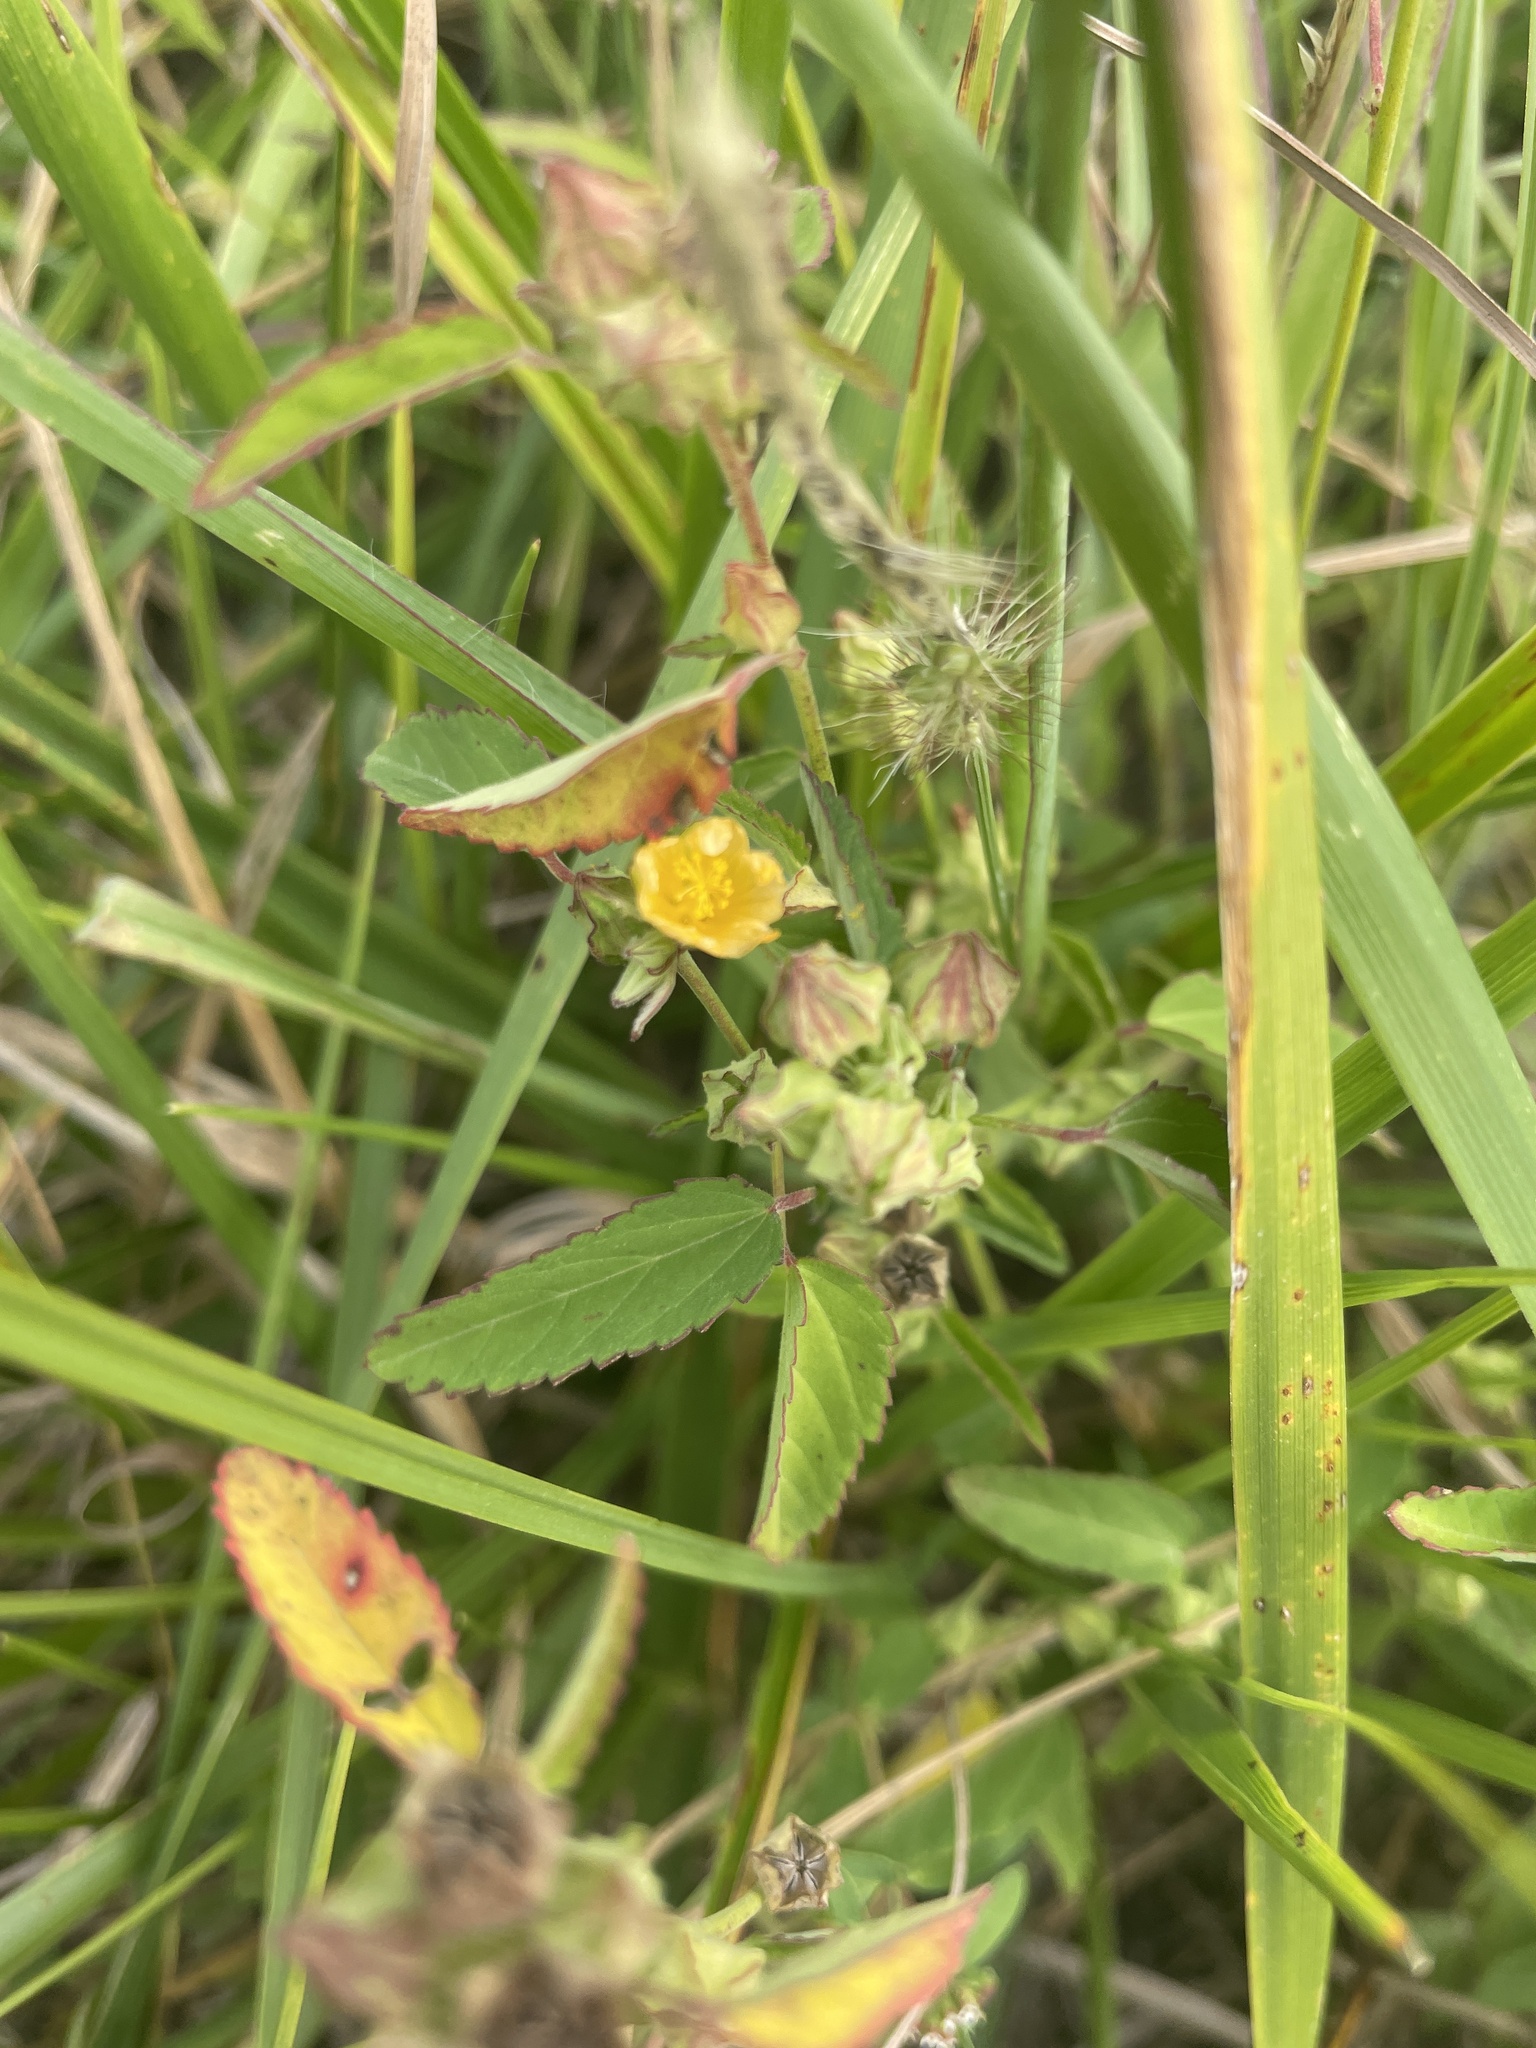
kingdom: Plantae
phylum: Tracheophyta
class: Magnoliopsida
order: Malvales
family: Malvaceae
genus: Sida
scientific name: Sida spinosa
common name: Prickly fanpetals
